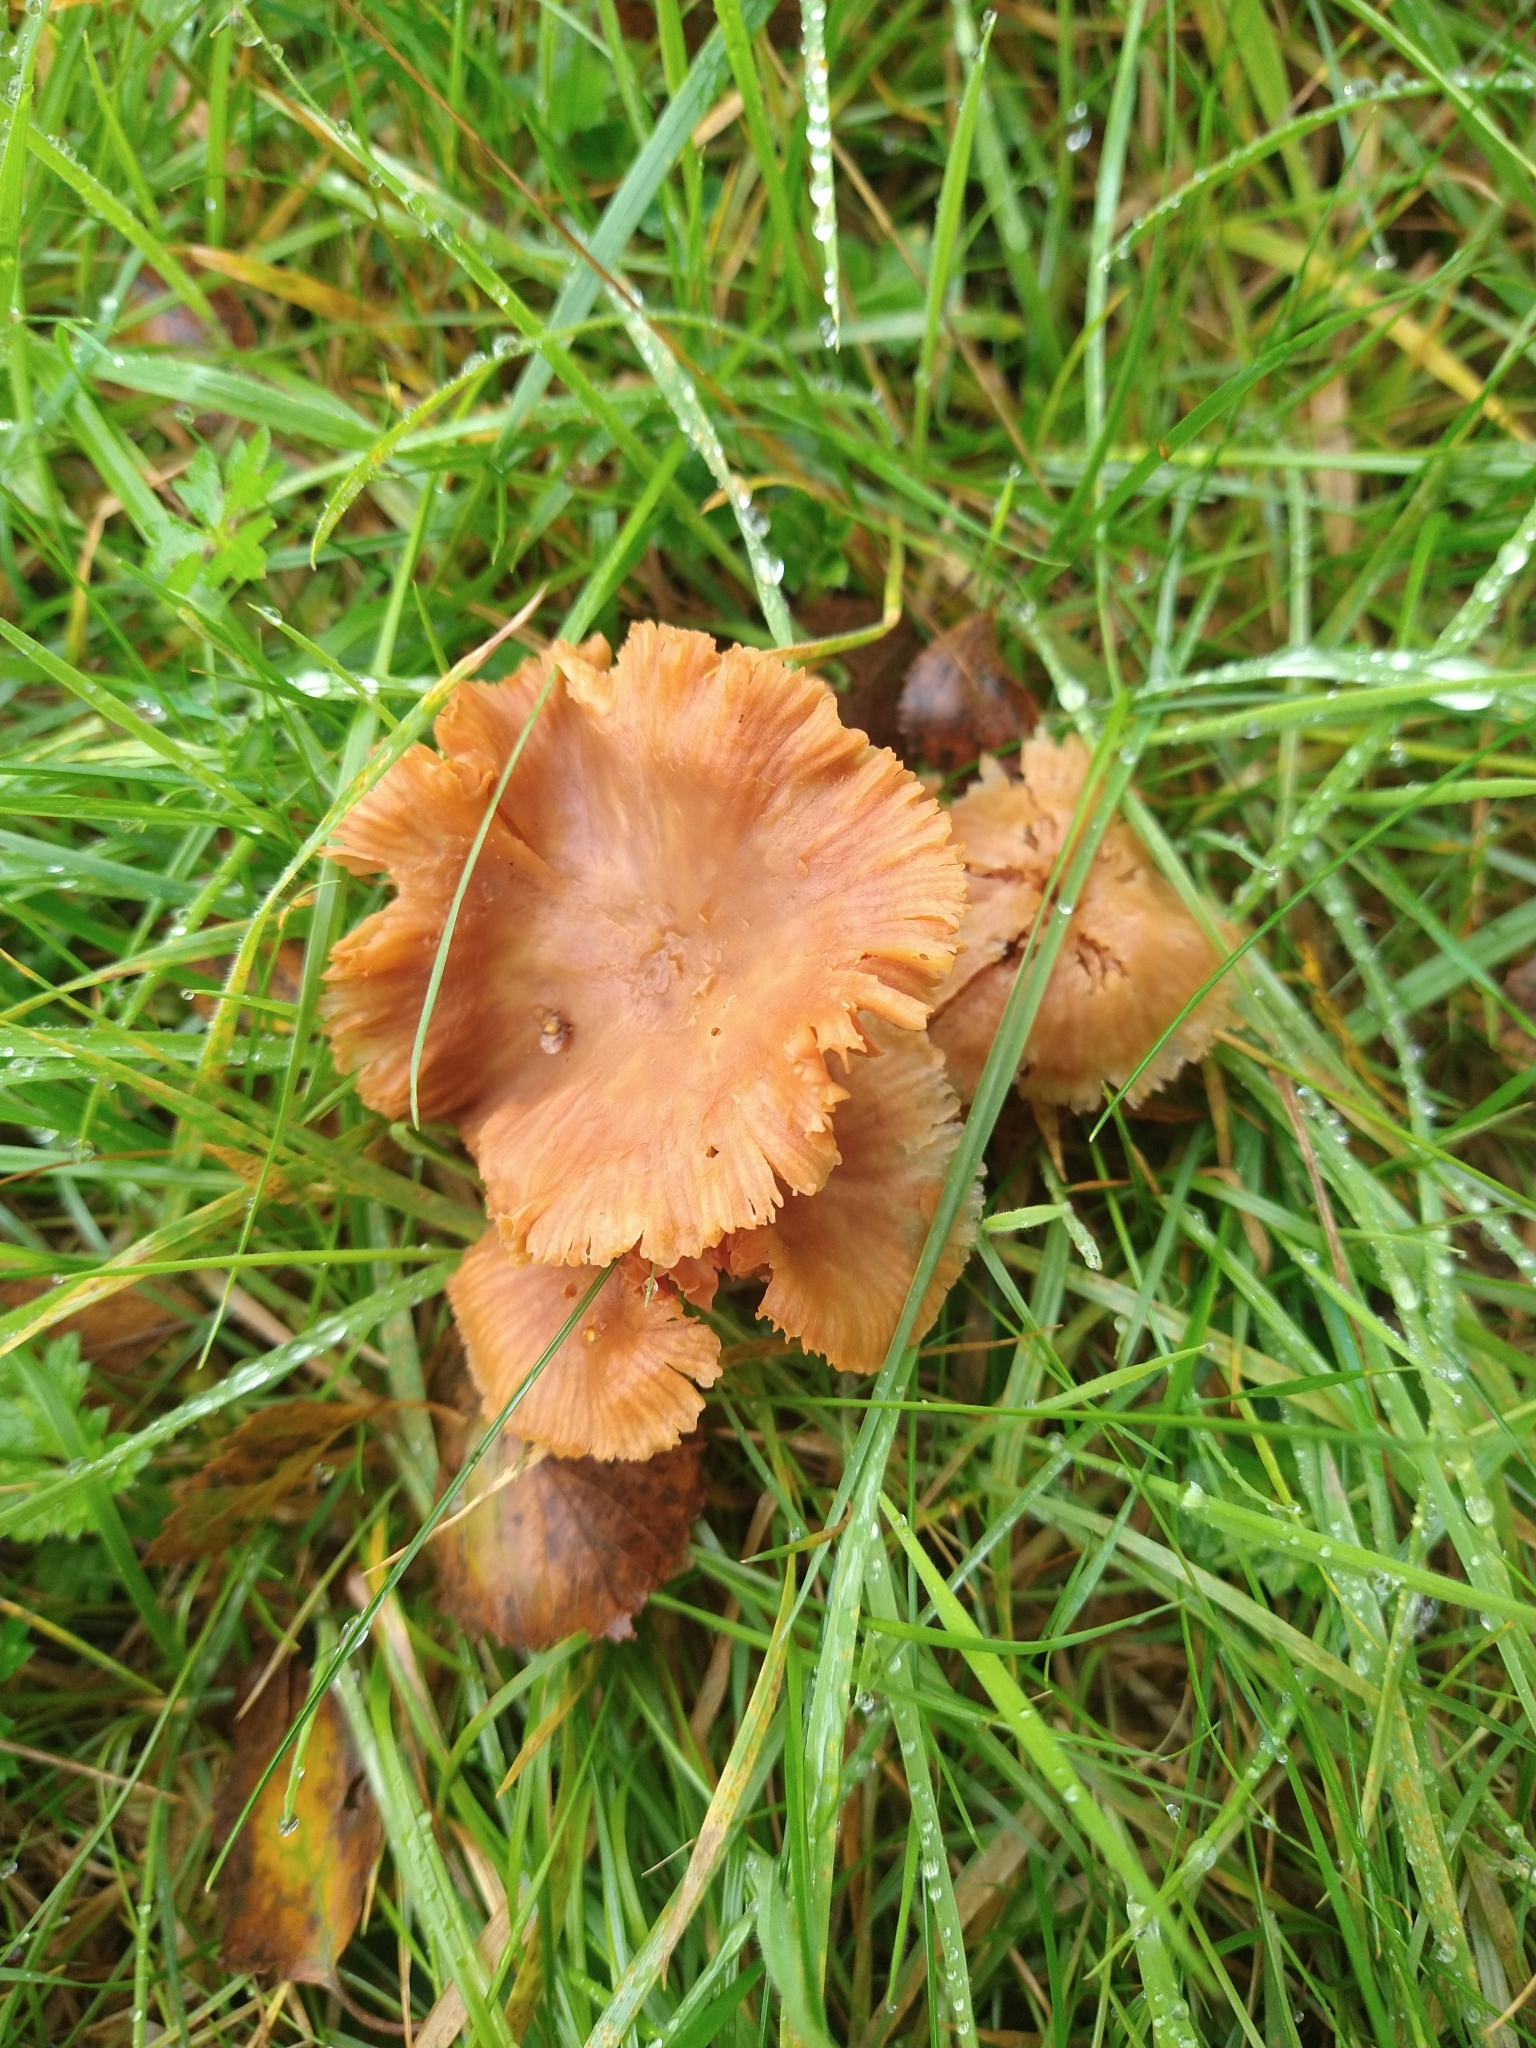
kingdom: Fungi
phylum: Basidiomycota
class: Agaricomycetes
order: Agaricales
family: Hydnangiaceae
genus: Laccaria
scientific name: Laccaria laccata
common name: Deceiver
